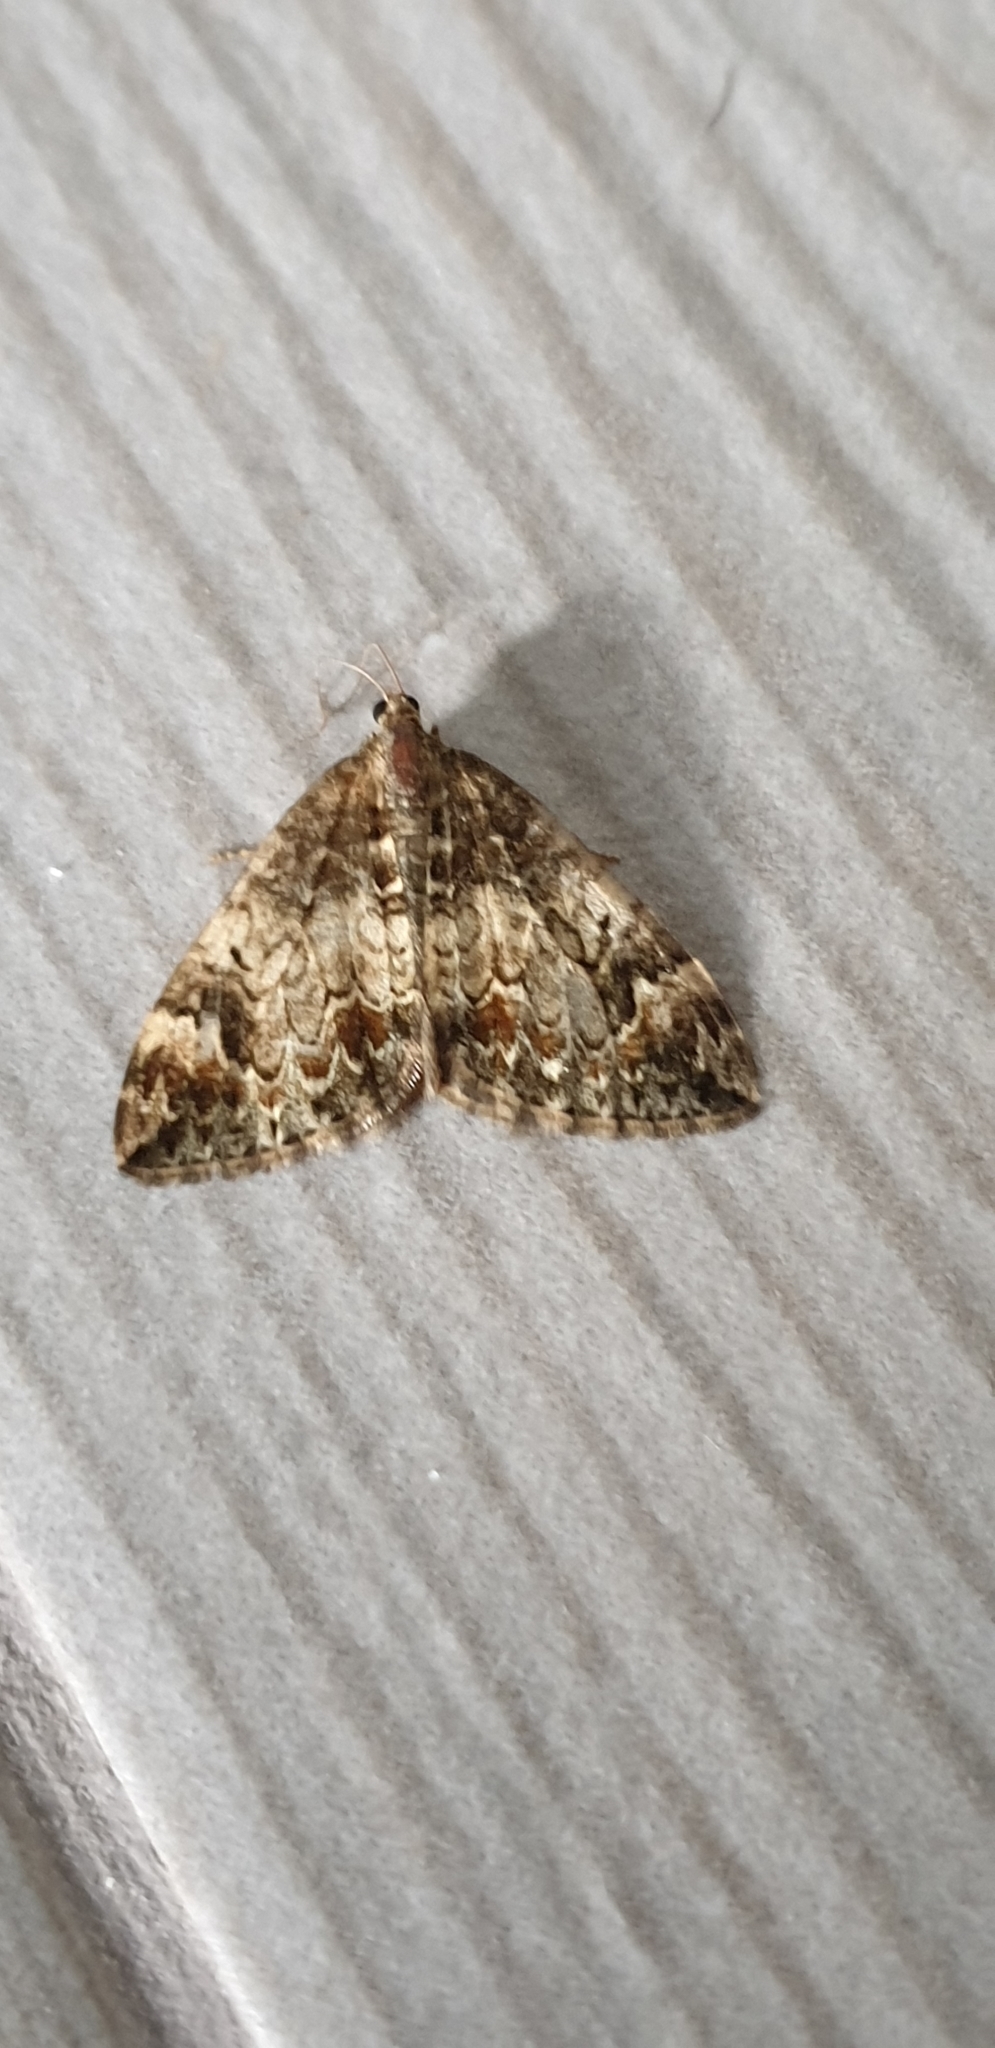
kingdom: Animalia
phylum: Arthropoda
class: Insecta
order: Lepidoptera
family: Geometridae
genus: Dysstroma
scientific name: Dysstroma truncata
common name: Common marbled carpet
